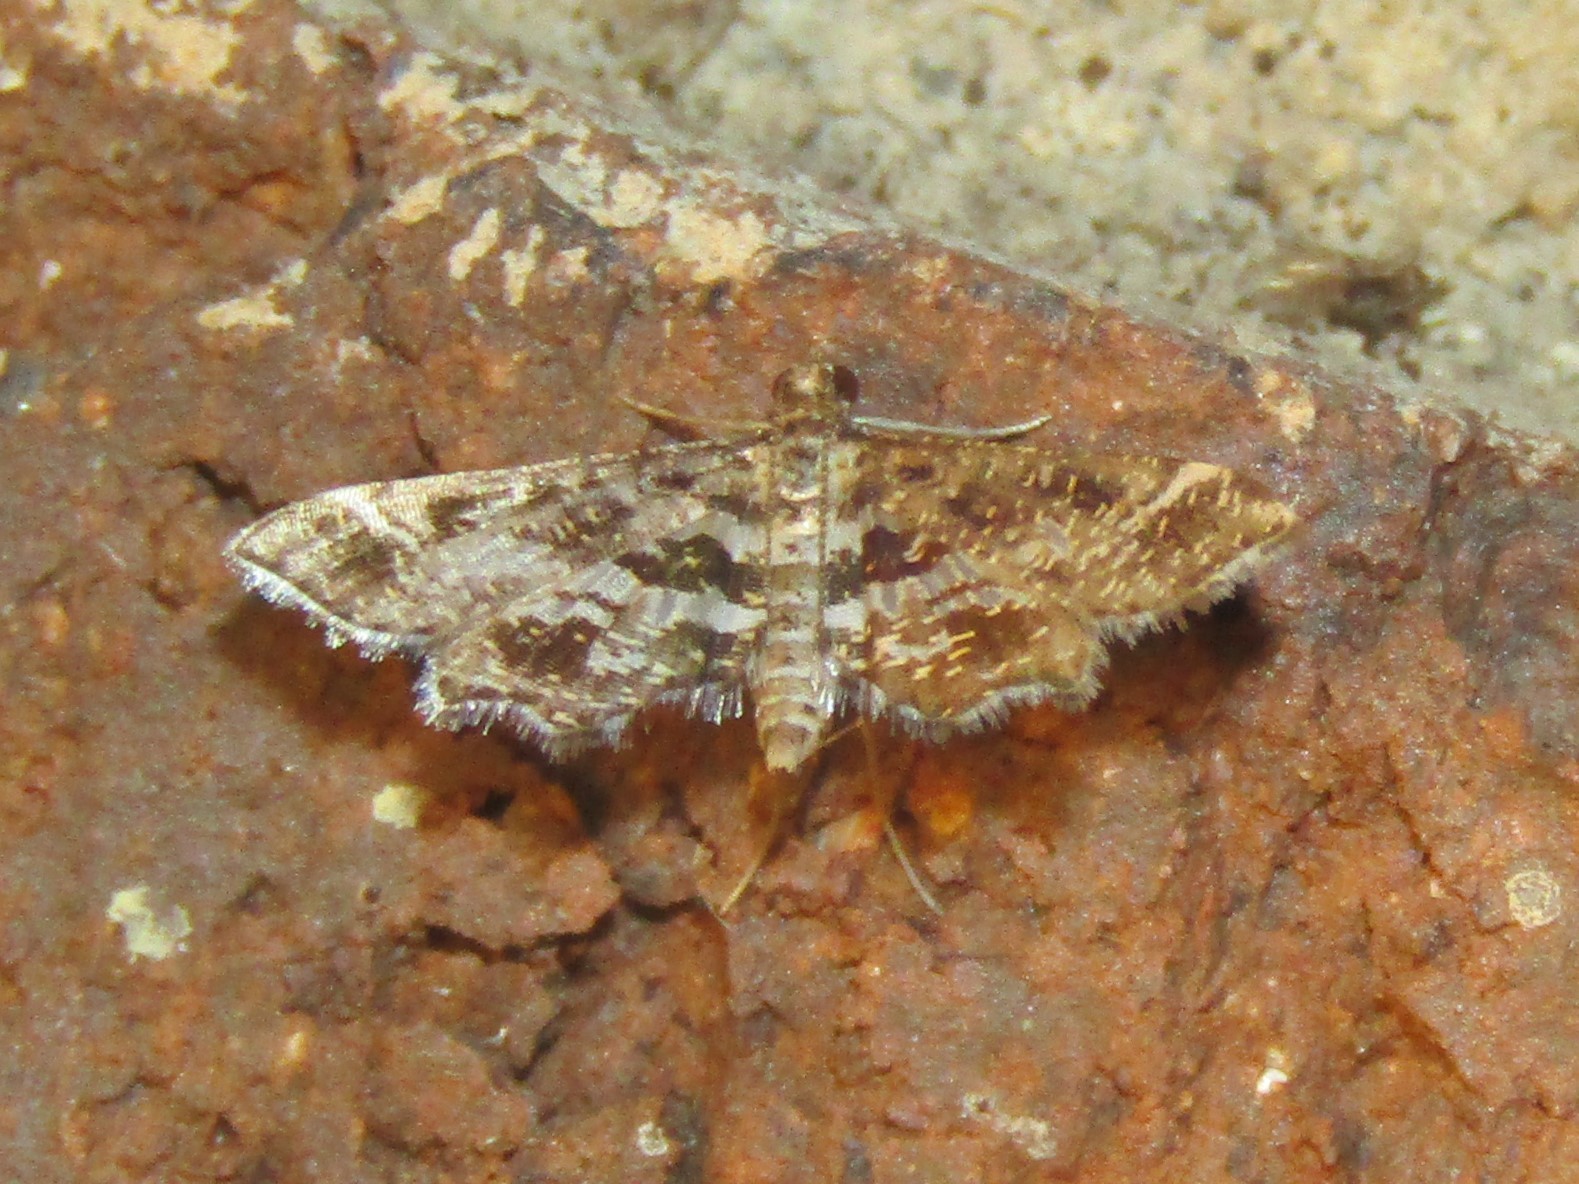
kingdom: Animalia
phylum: Arthropoda
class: Insecta
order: Lepidoptera
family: Crambidae
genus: Diasemiopsis
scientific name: Diasemiopsis ramburialis
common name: Vagrant china-mark
